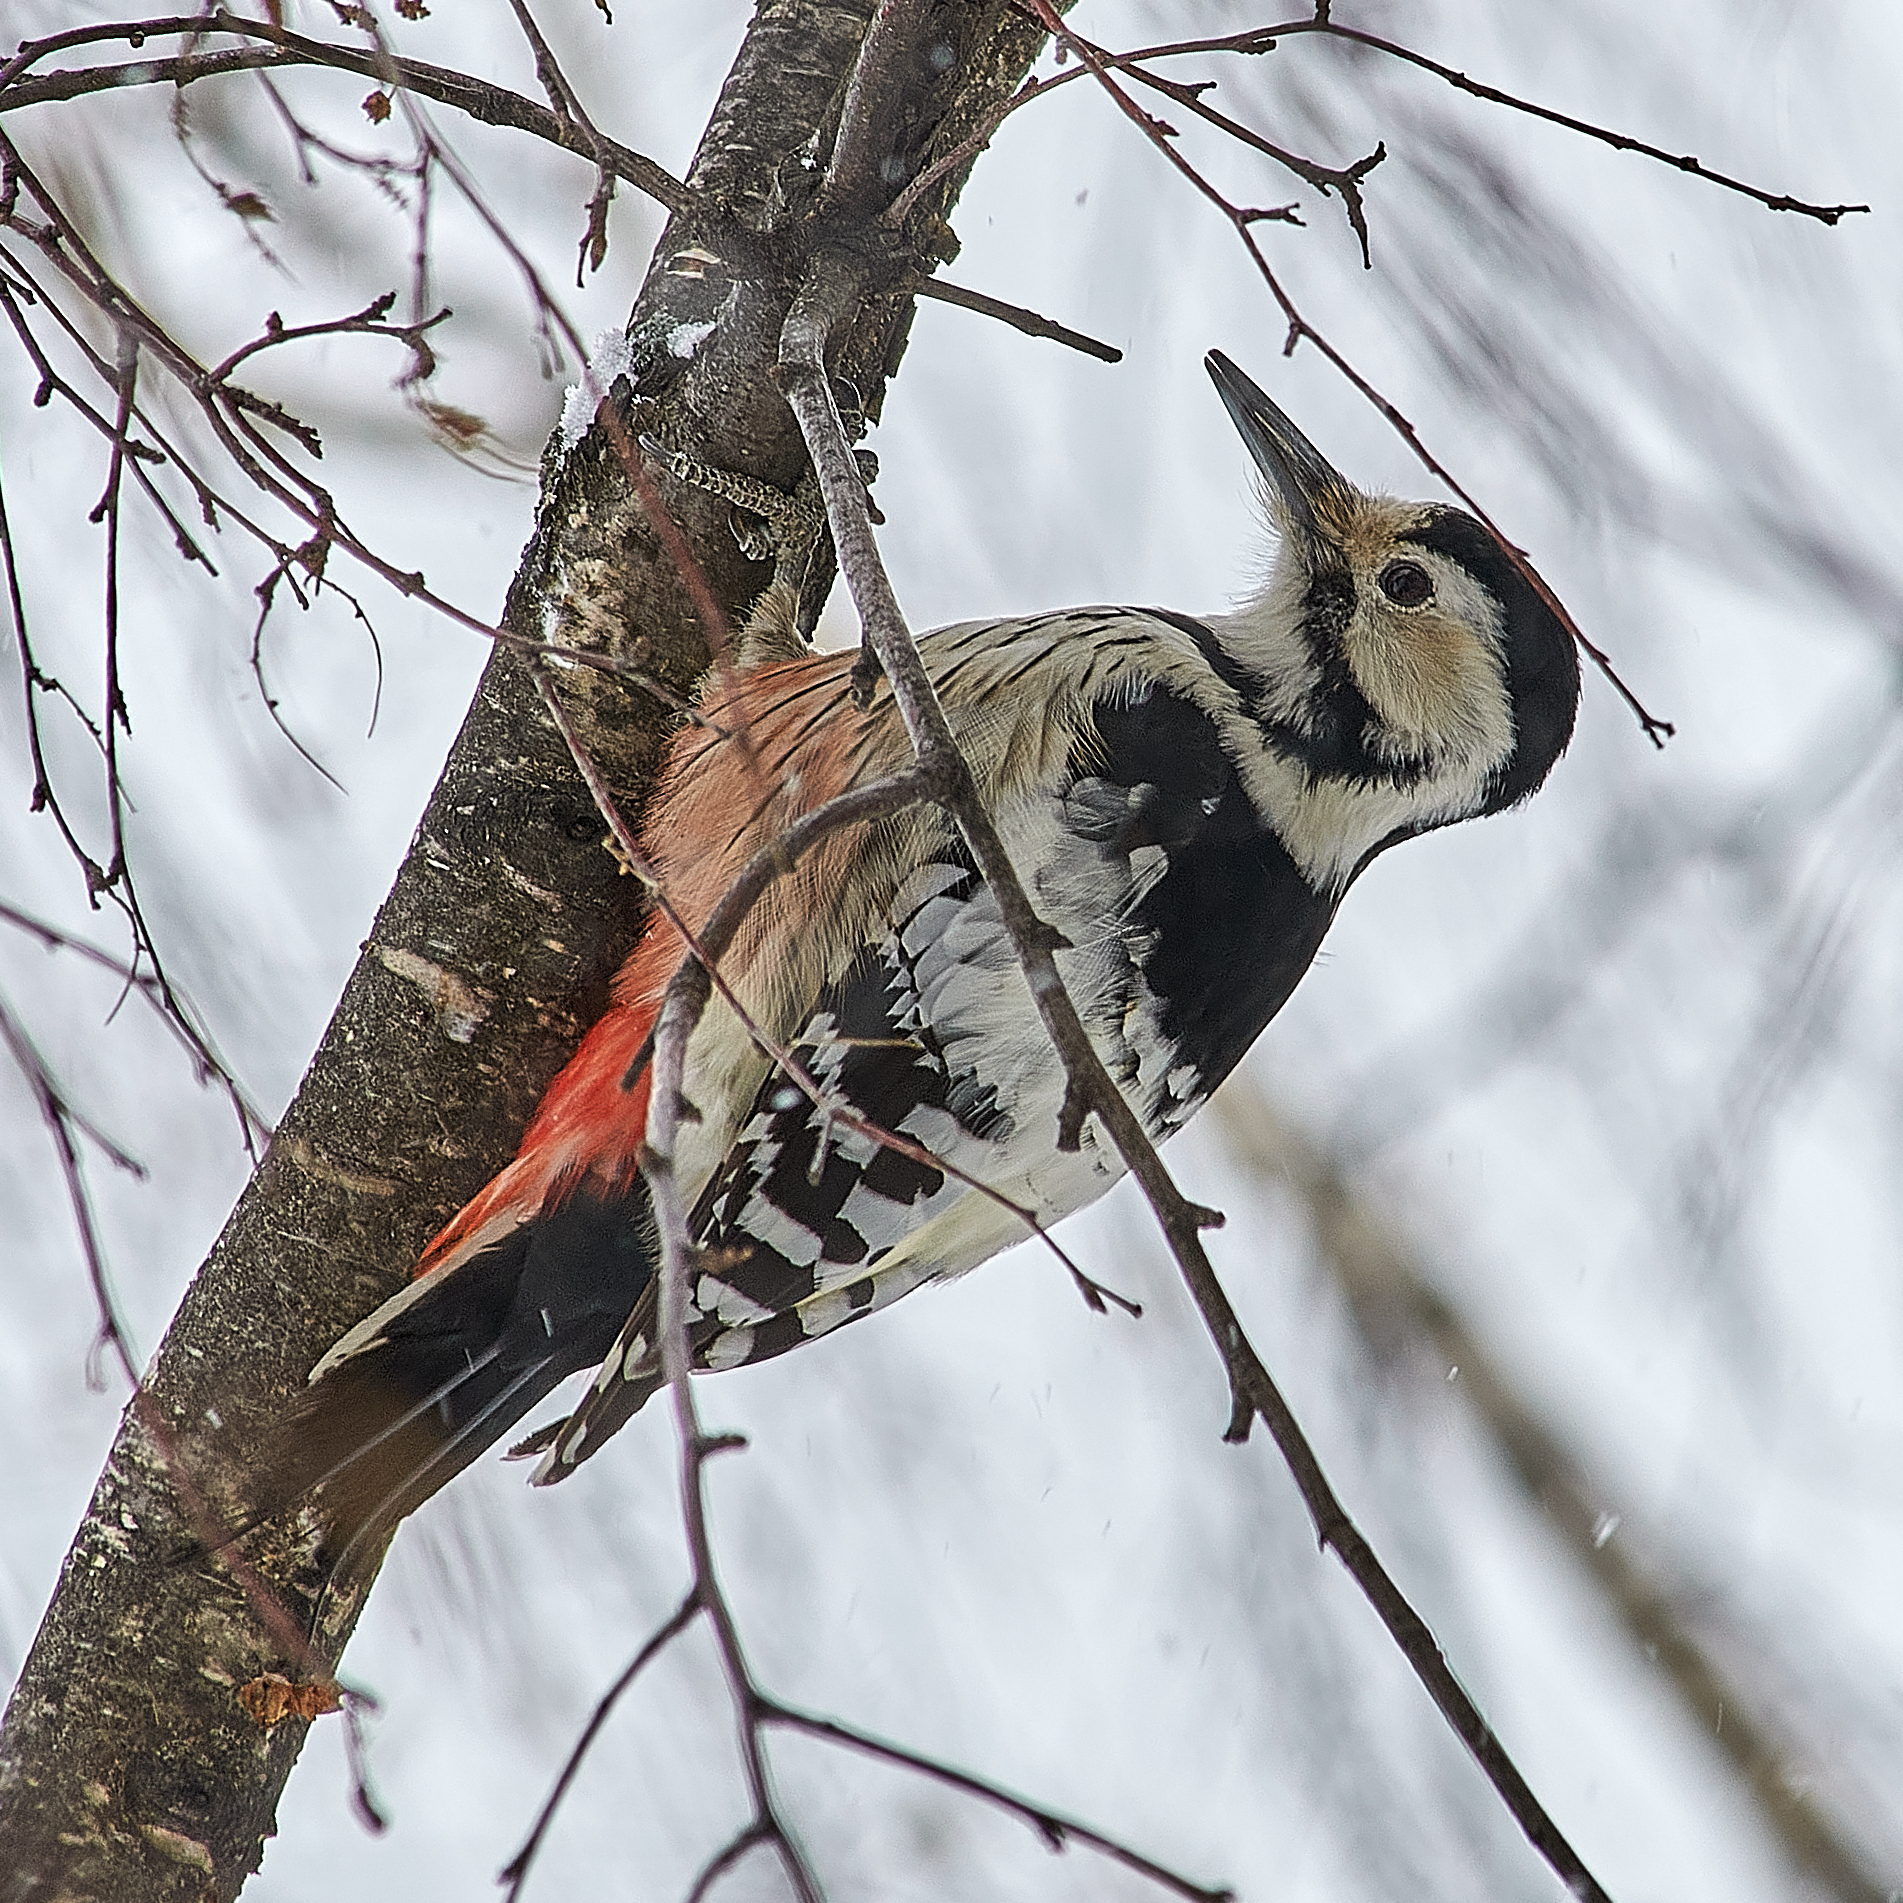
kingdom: Animalia
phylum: Chordata
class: Aves
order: Piciformes
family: Picidae
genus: Dendrocopos
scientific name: Dendrocopos leucotos
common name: White-backed woodpecker
